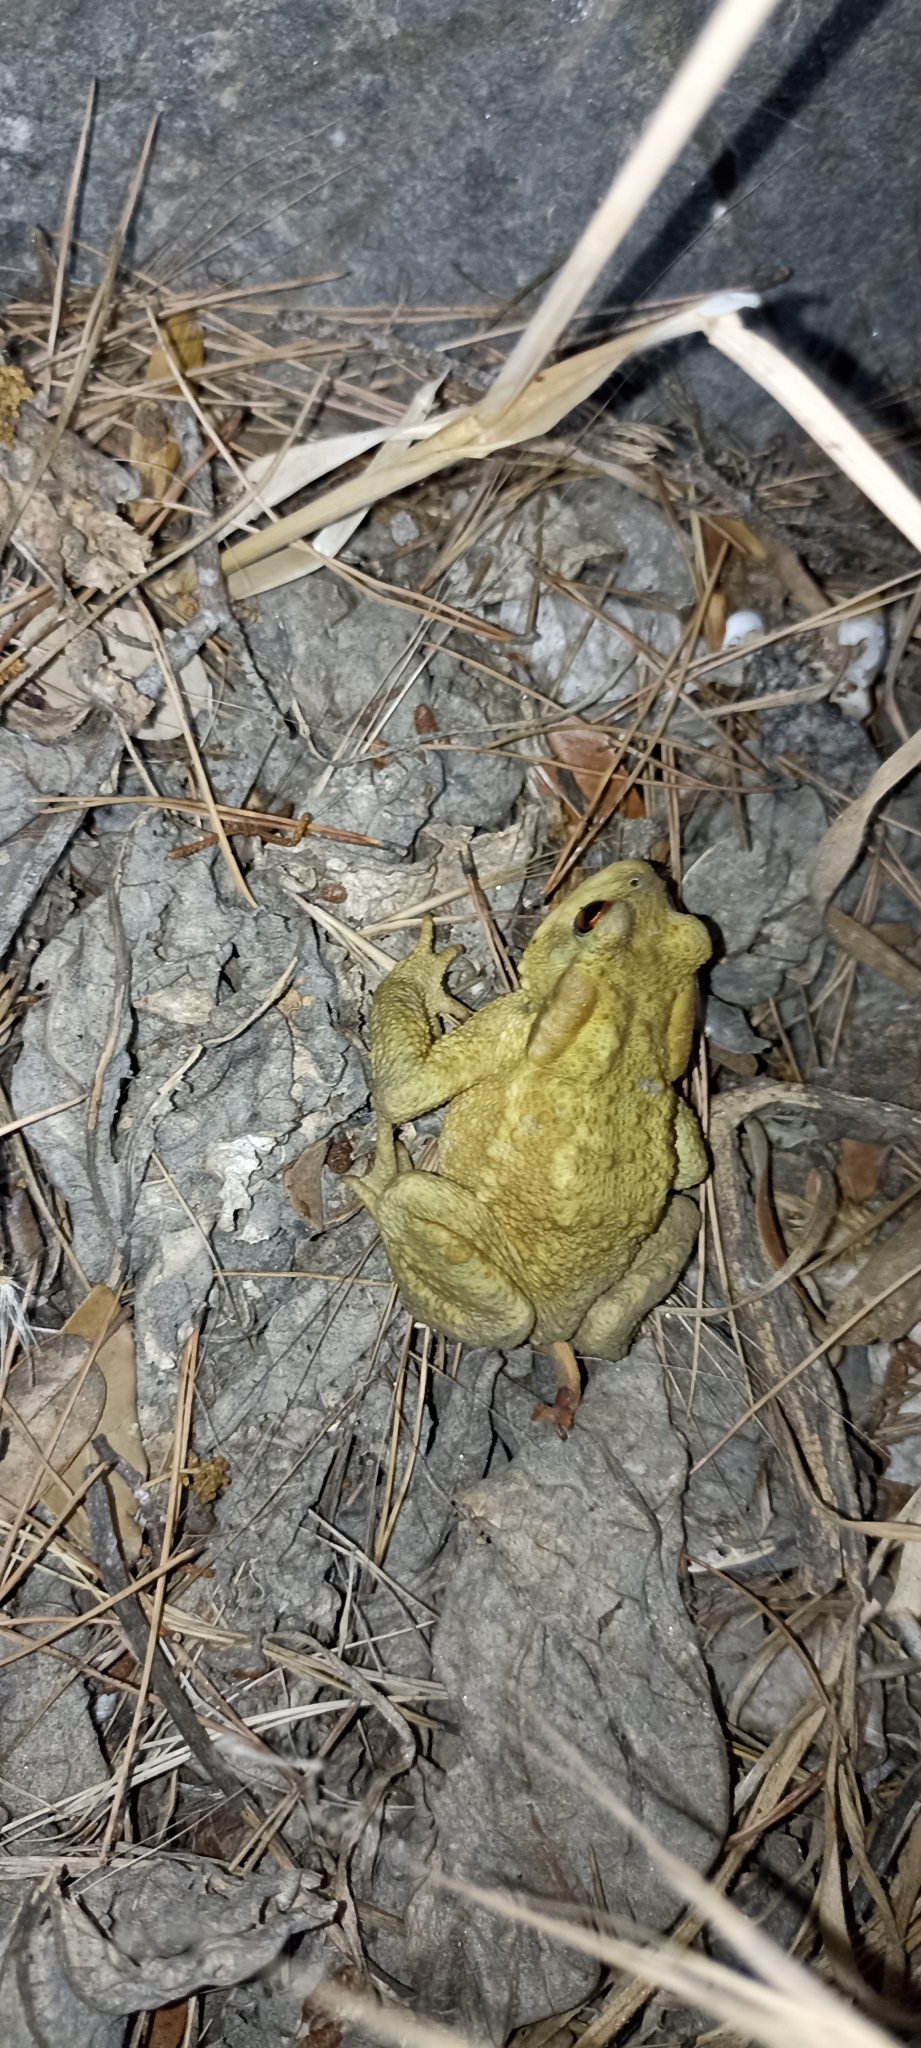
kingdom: Animalia
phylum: Chordata
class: Amphibia
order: Anura
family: Bufonidae
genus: Bufo
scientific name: Bufo spinosus
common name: Western common toad
